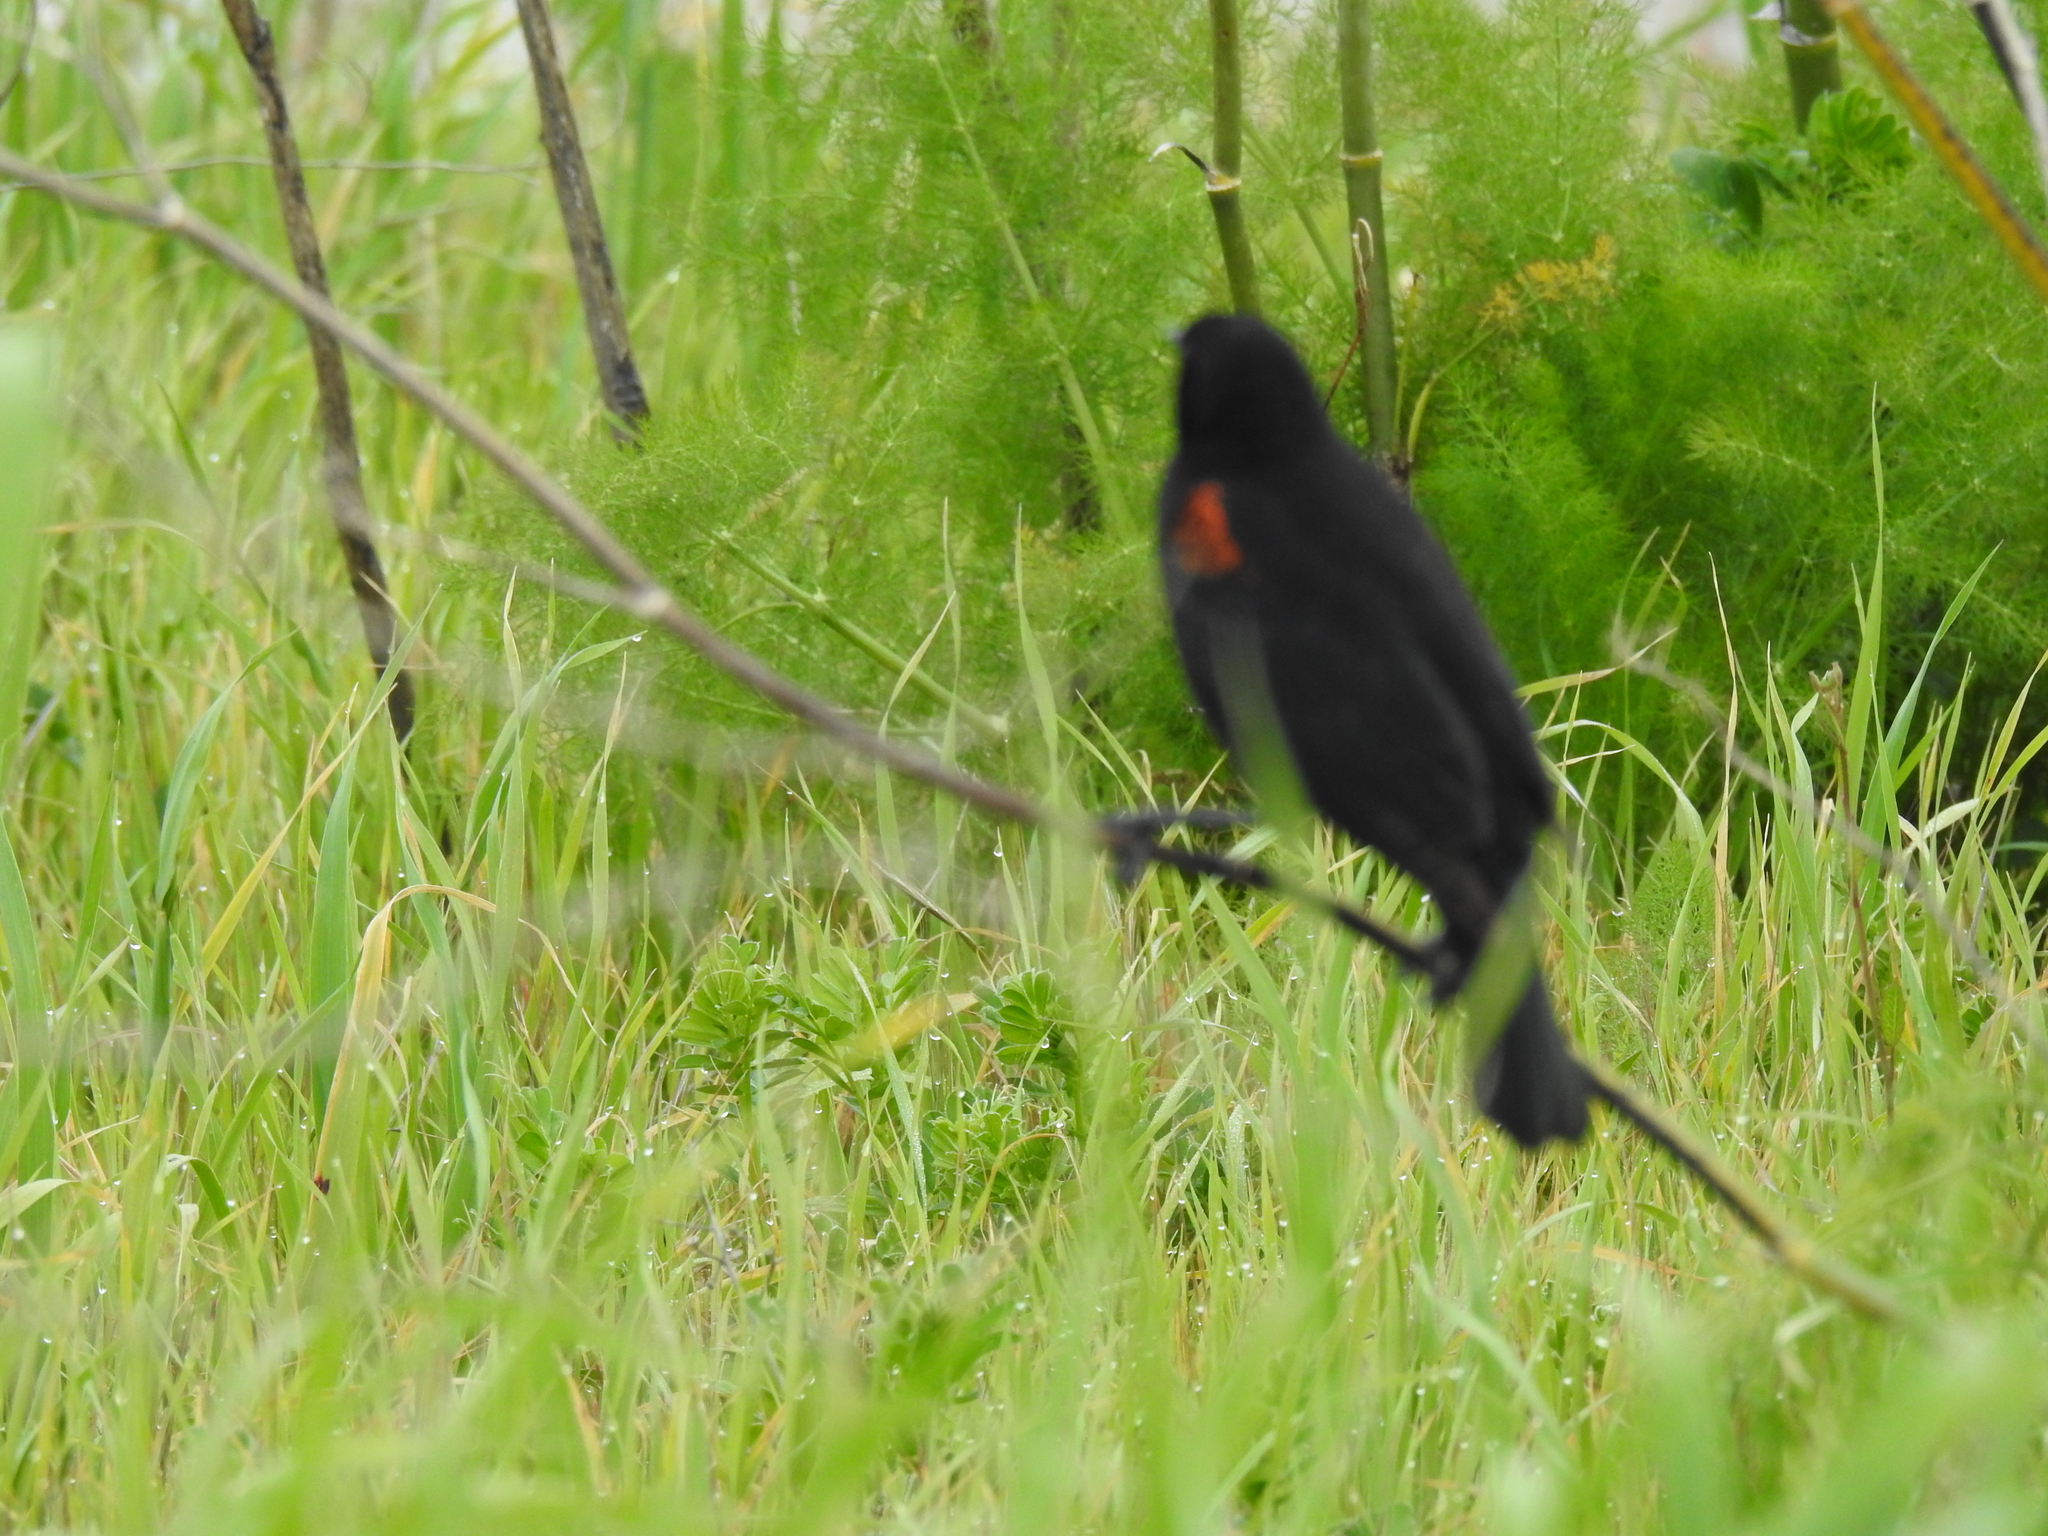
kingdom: Animalia
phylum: Chordata
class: Aves
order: Passeriformes
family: Icteridae
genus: Agelaius
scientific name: Agelaius phoeniceus
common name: Red-winged blackbird
